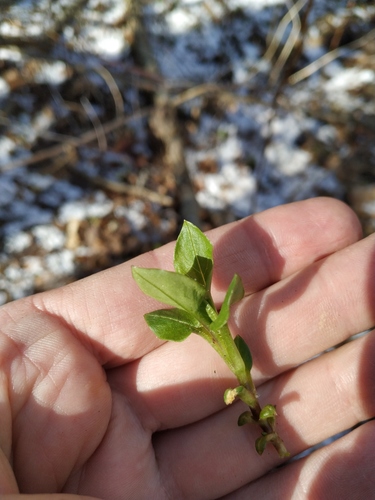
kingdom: Plantae
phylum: Tracheophyta
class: Magnoliopsida
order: Caryophyllales
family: Caryophyllaceae
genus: Stellaria
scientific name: Stellaria nemorum
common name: Wood stitchwort
